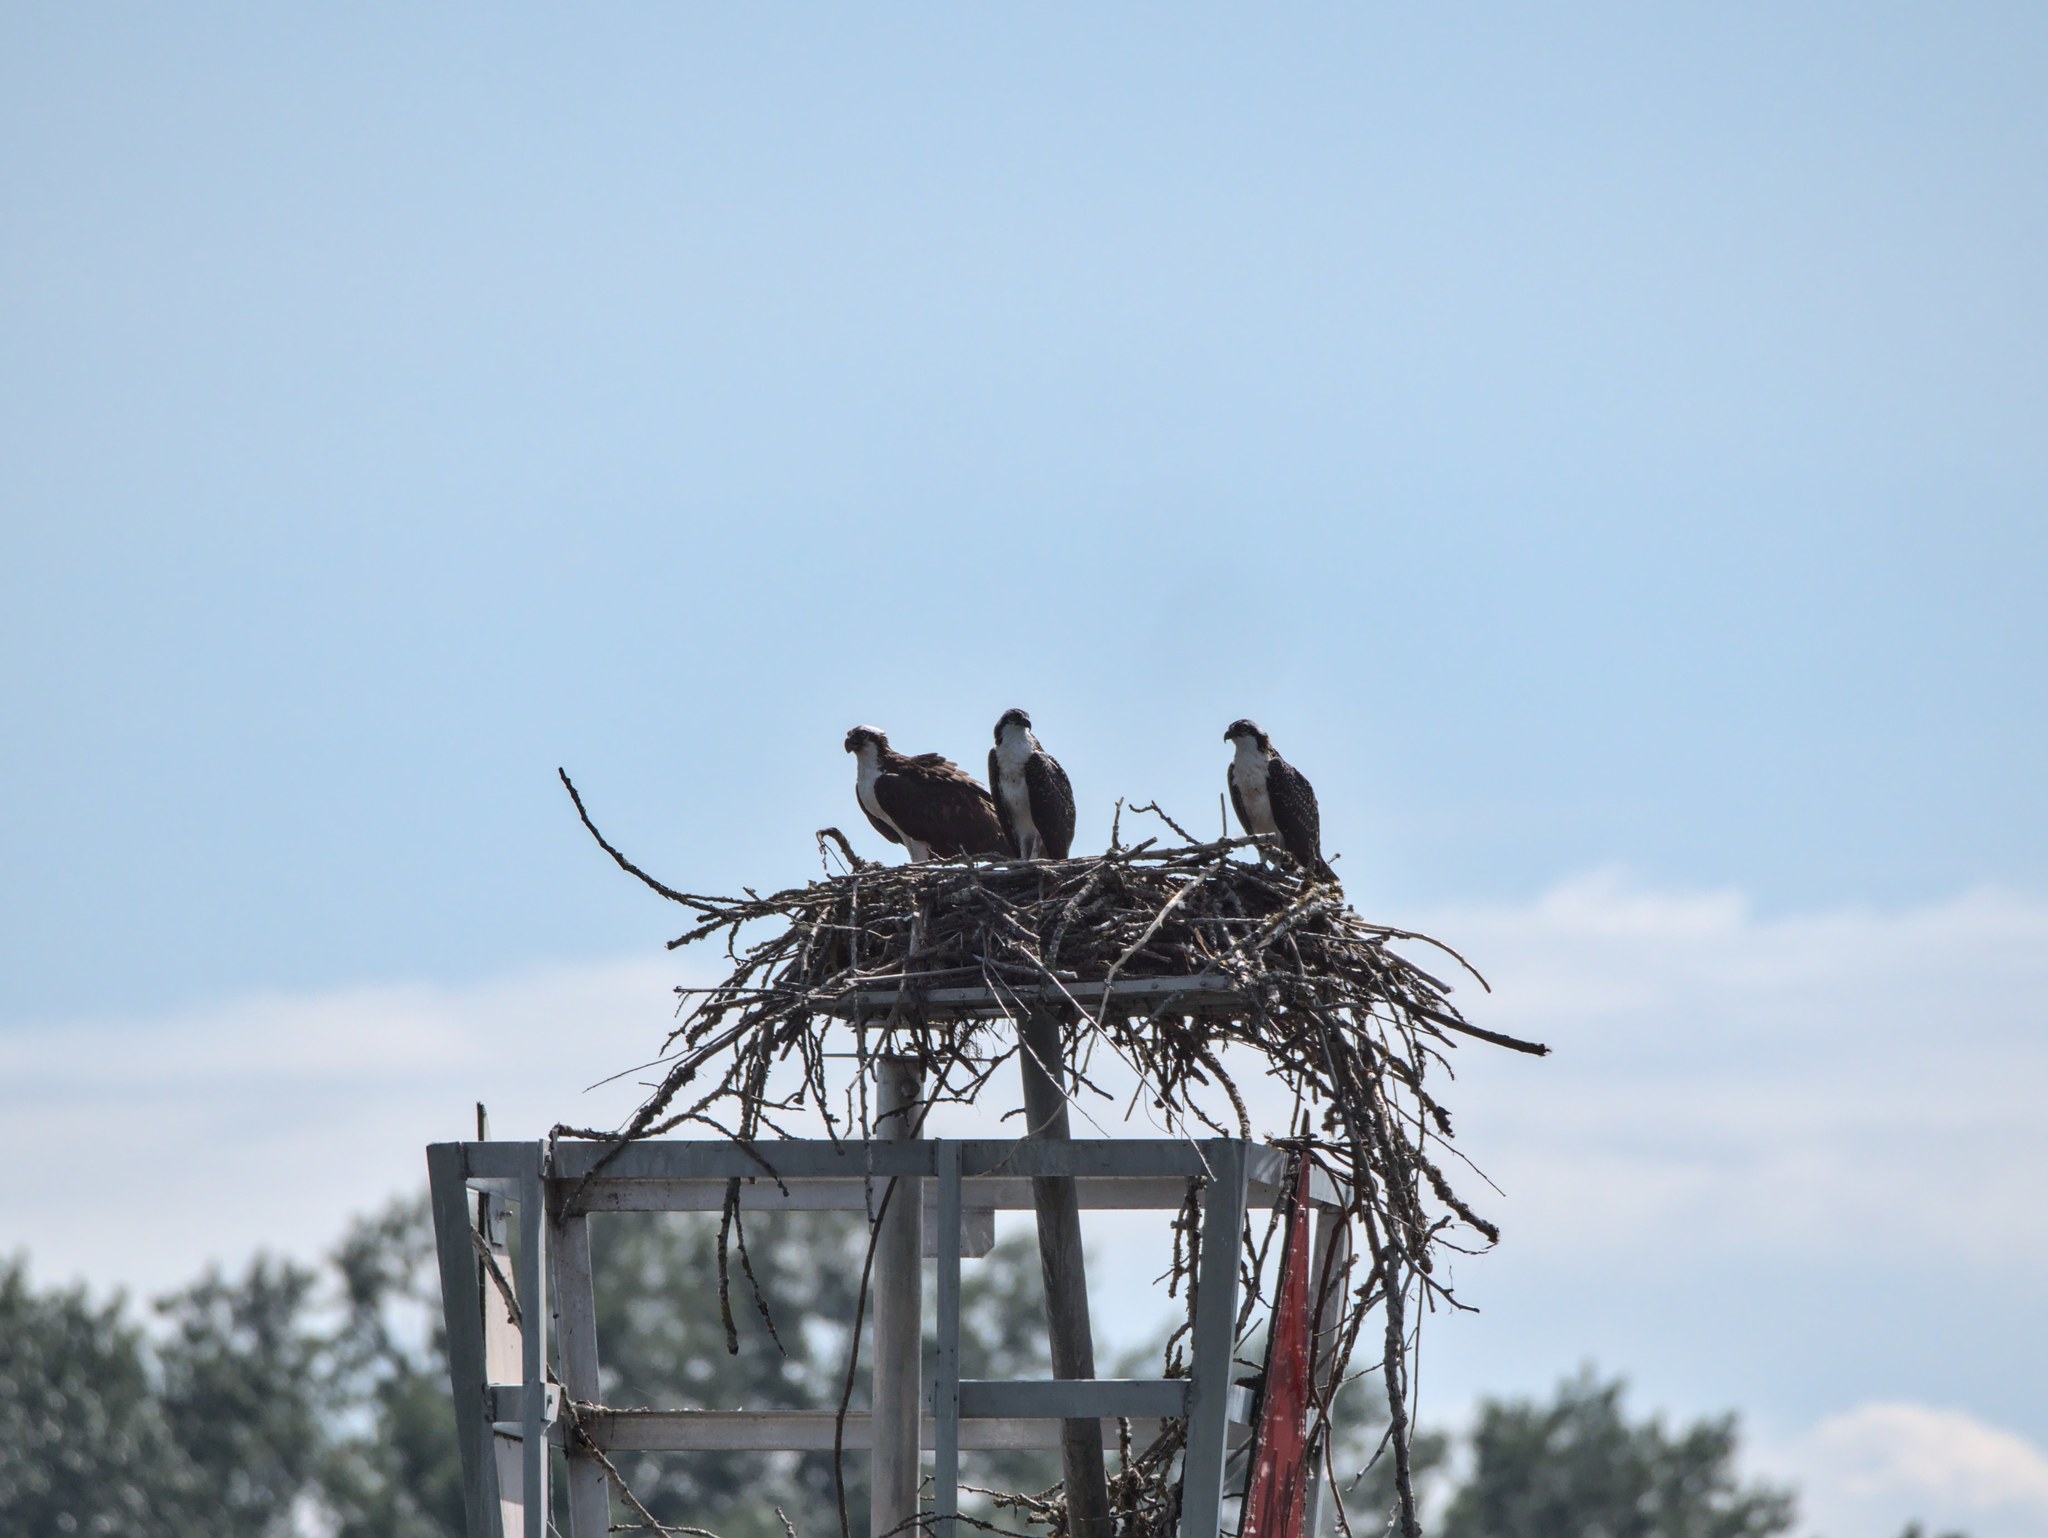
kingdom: Animalia
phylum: Chordata
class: Aves
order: Accipitriformes
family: Pandionidae
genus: Pandion
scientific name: Pandion haliaetus
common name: Osprey
